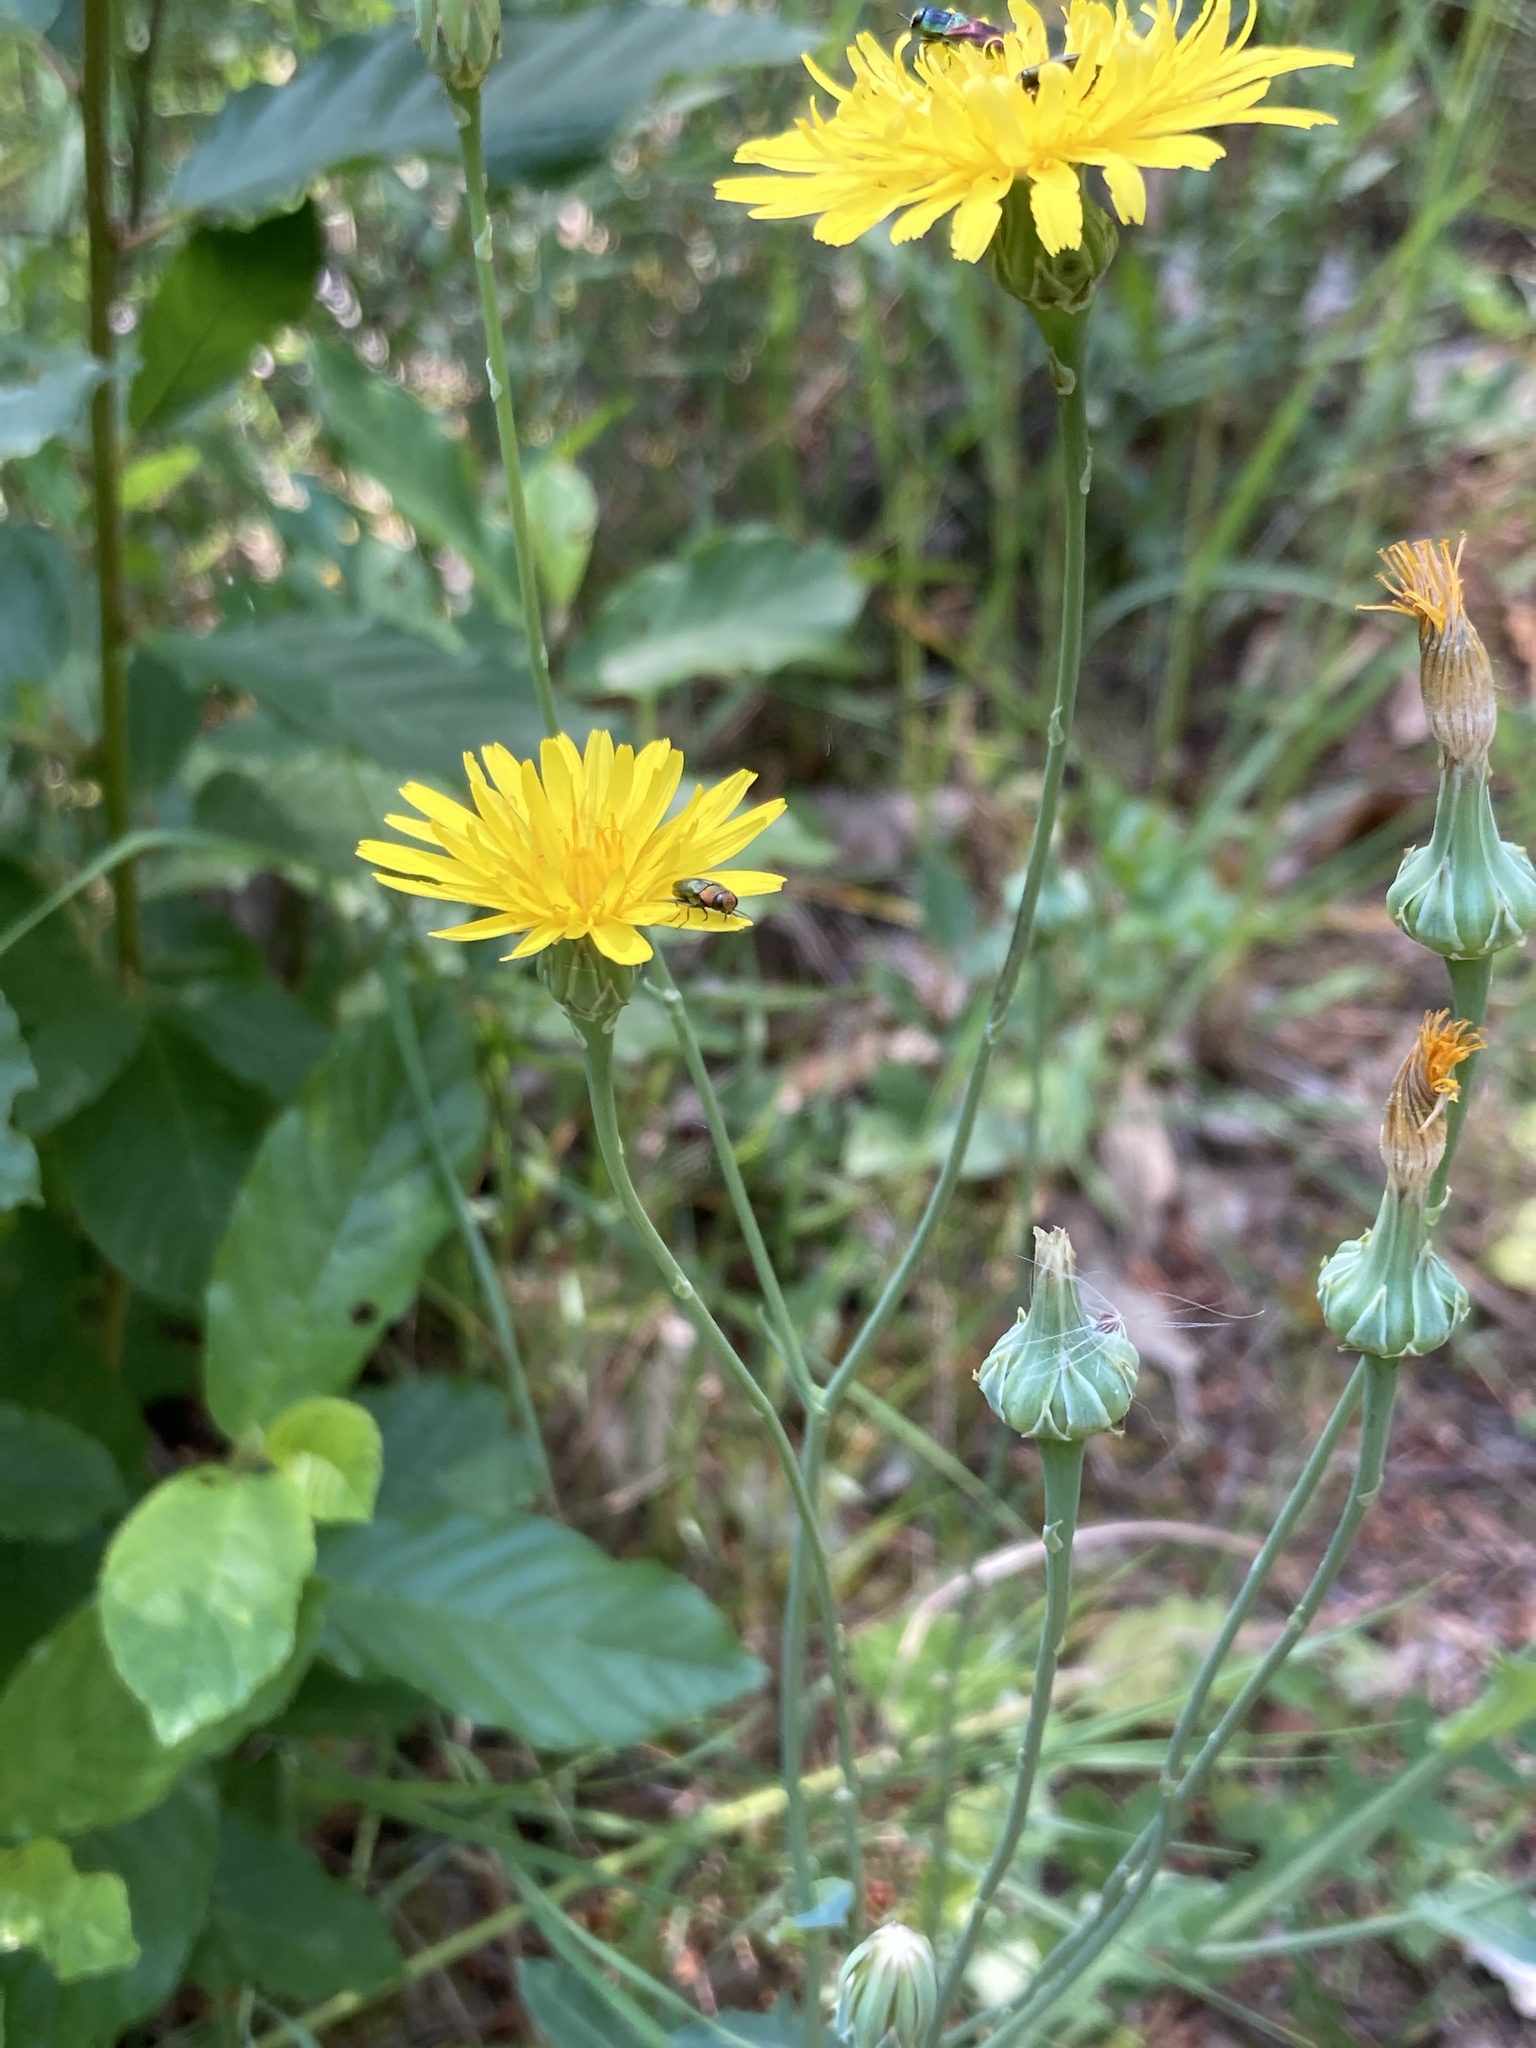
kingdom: Plantae
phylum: Tracheophyta
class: Magnoliopsida
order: Asterales
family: Asteraceae
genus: Reichardia
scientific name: Reichardia picroides
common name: Common brighteyes
